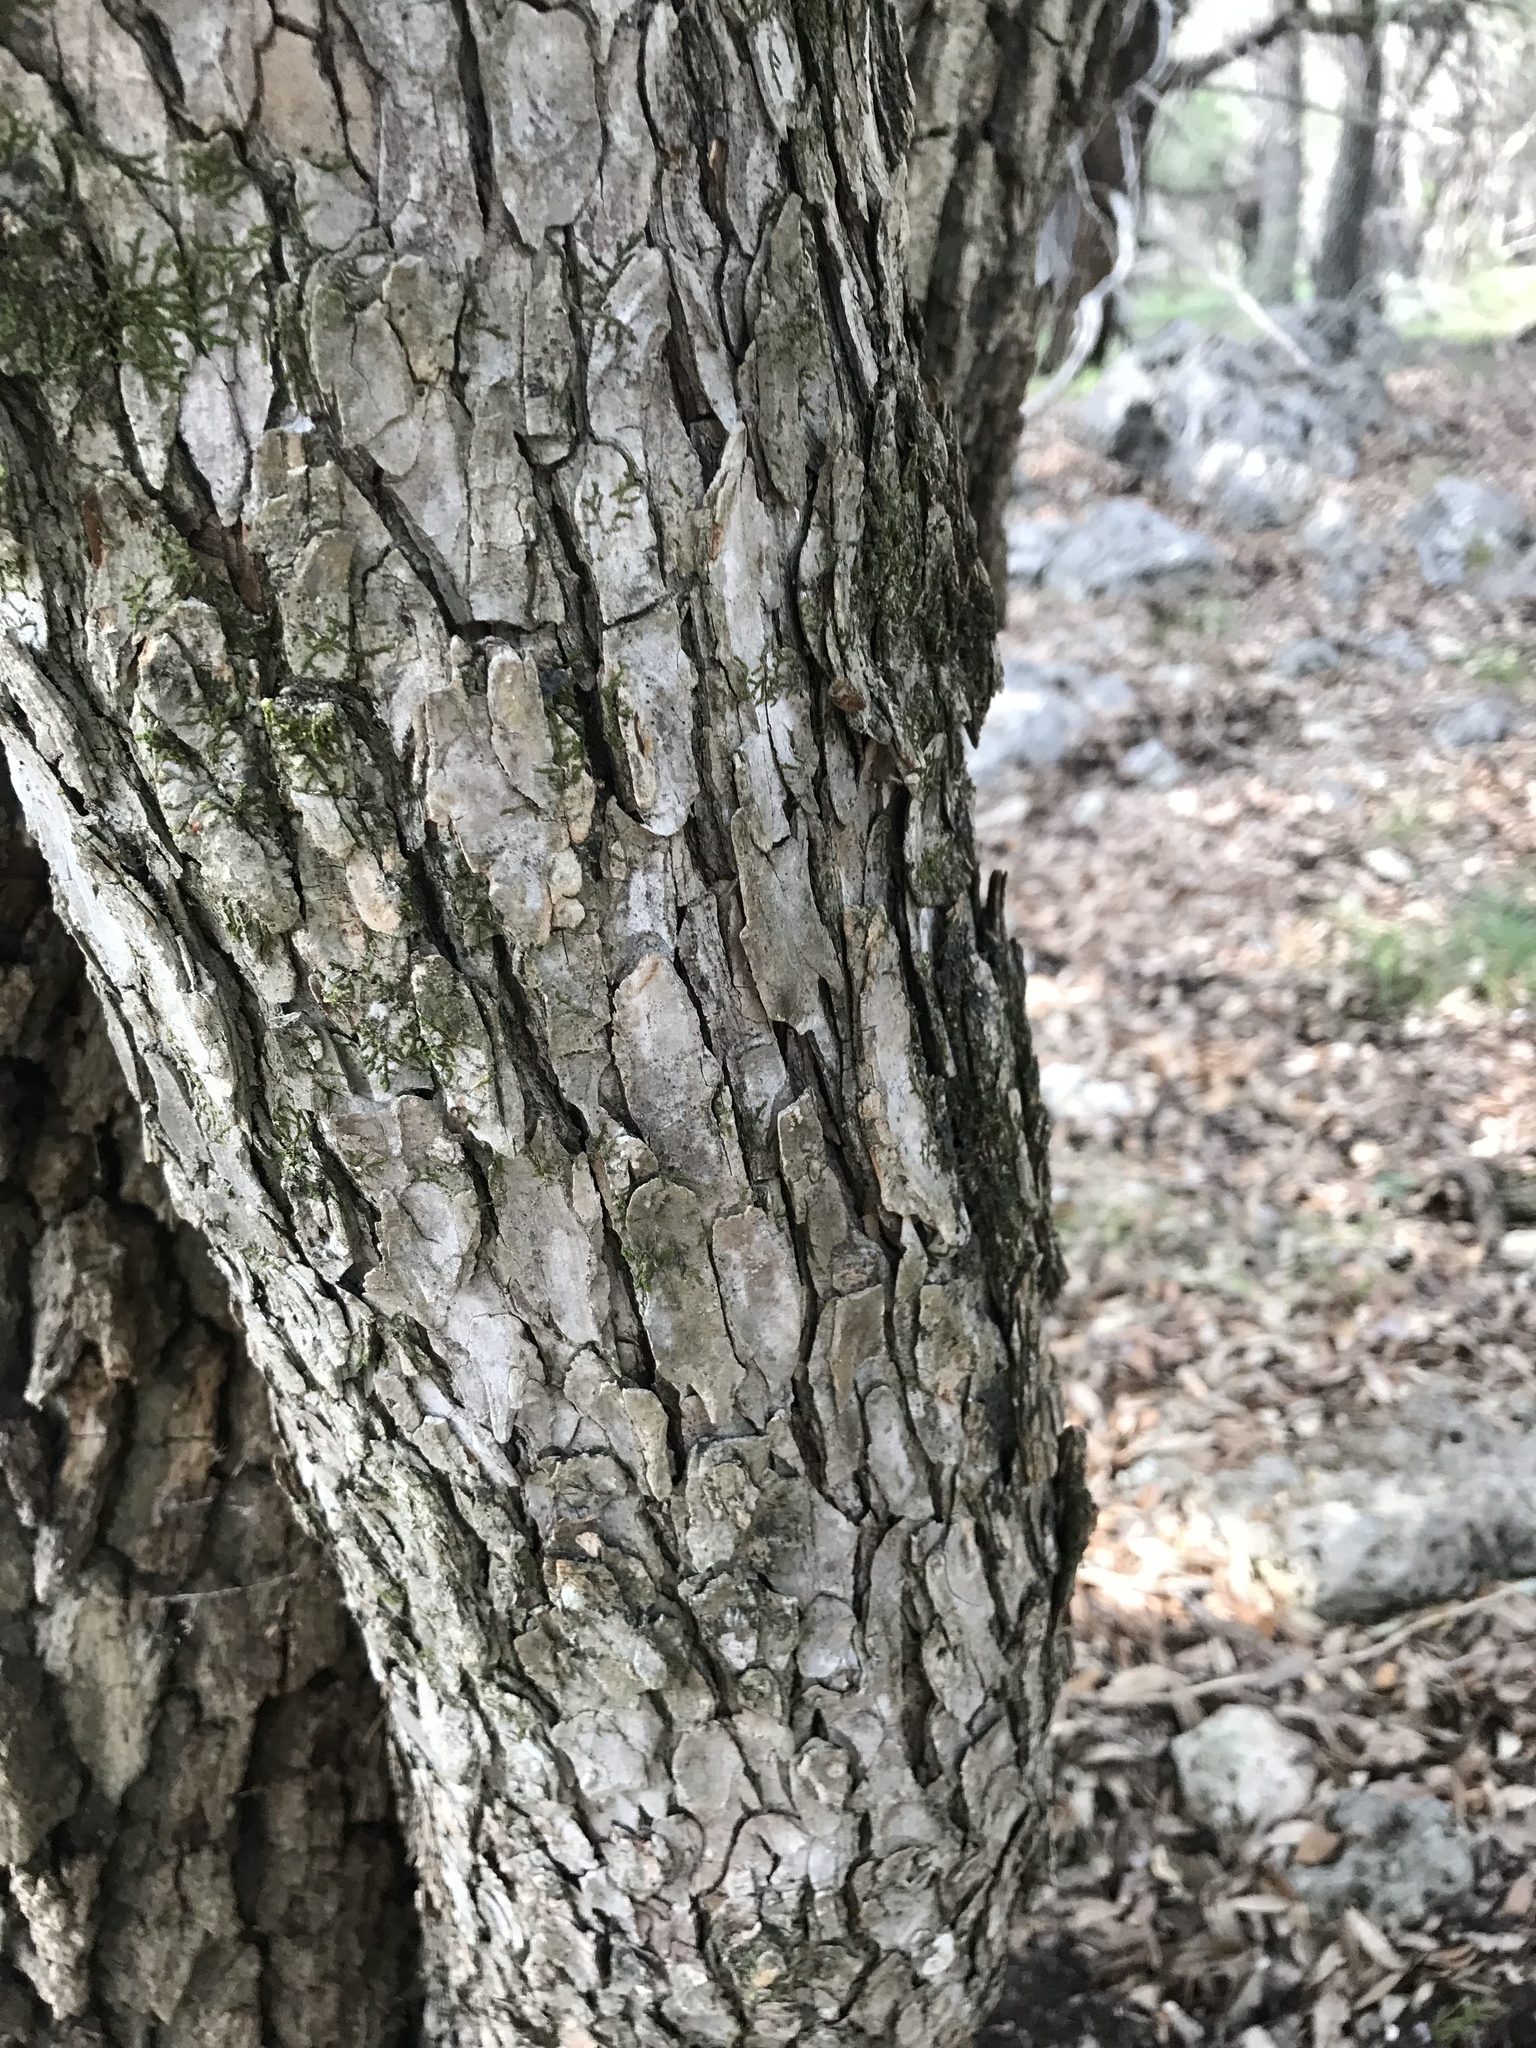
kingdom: Plantae
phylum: Tracheophyta
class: Magnoliopsida
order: Rosales
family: Ulmaceae
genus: Ulmus
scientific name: Ulmus crassifolia
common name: Basket elm
